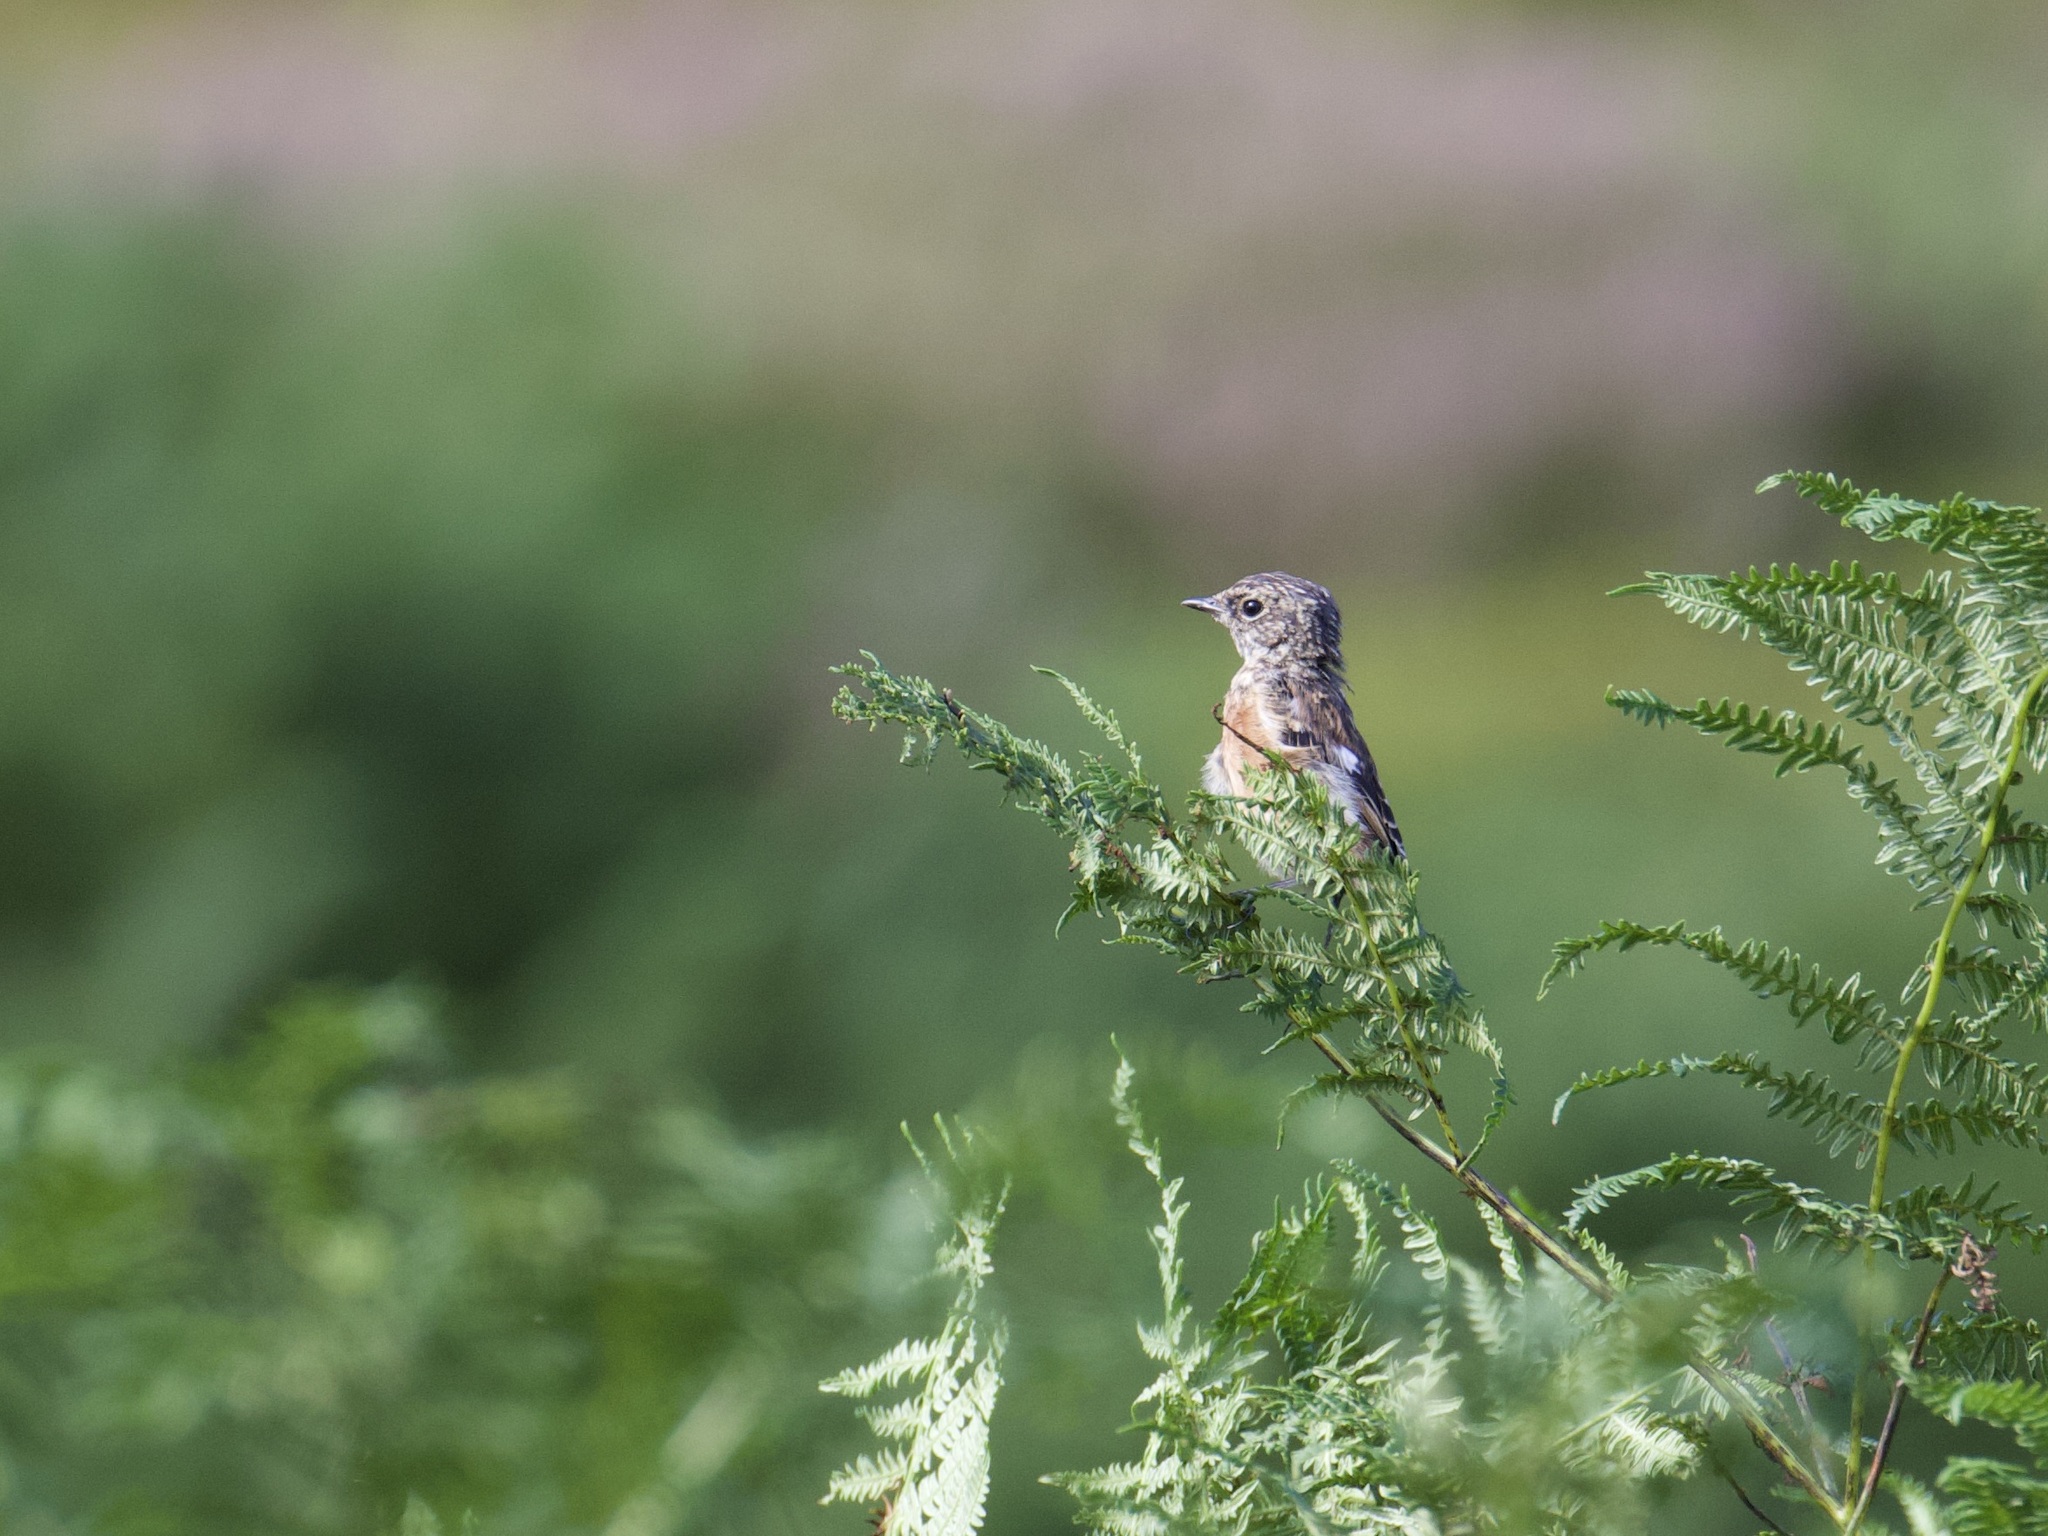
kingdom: Animalia
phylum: Chordata
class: Aves
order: Passeriformes
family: Muscicapidae
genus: Saxicola
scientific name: Saxicola rubicola
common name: European stonechat
